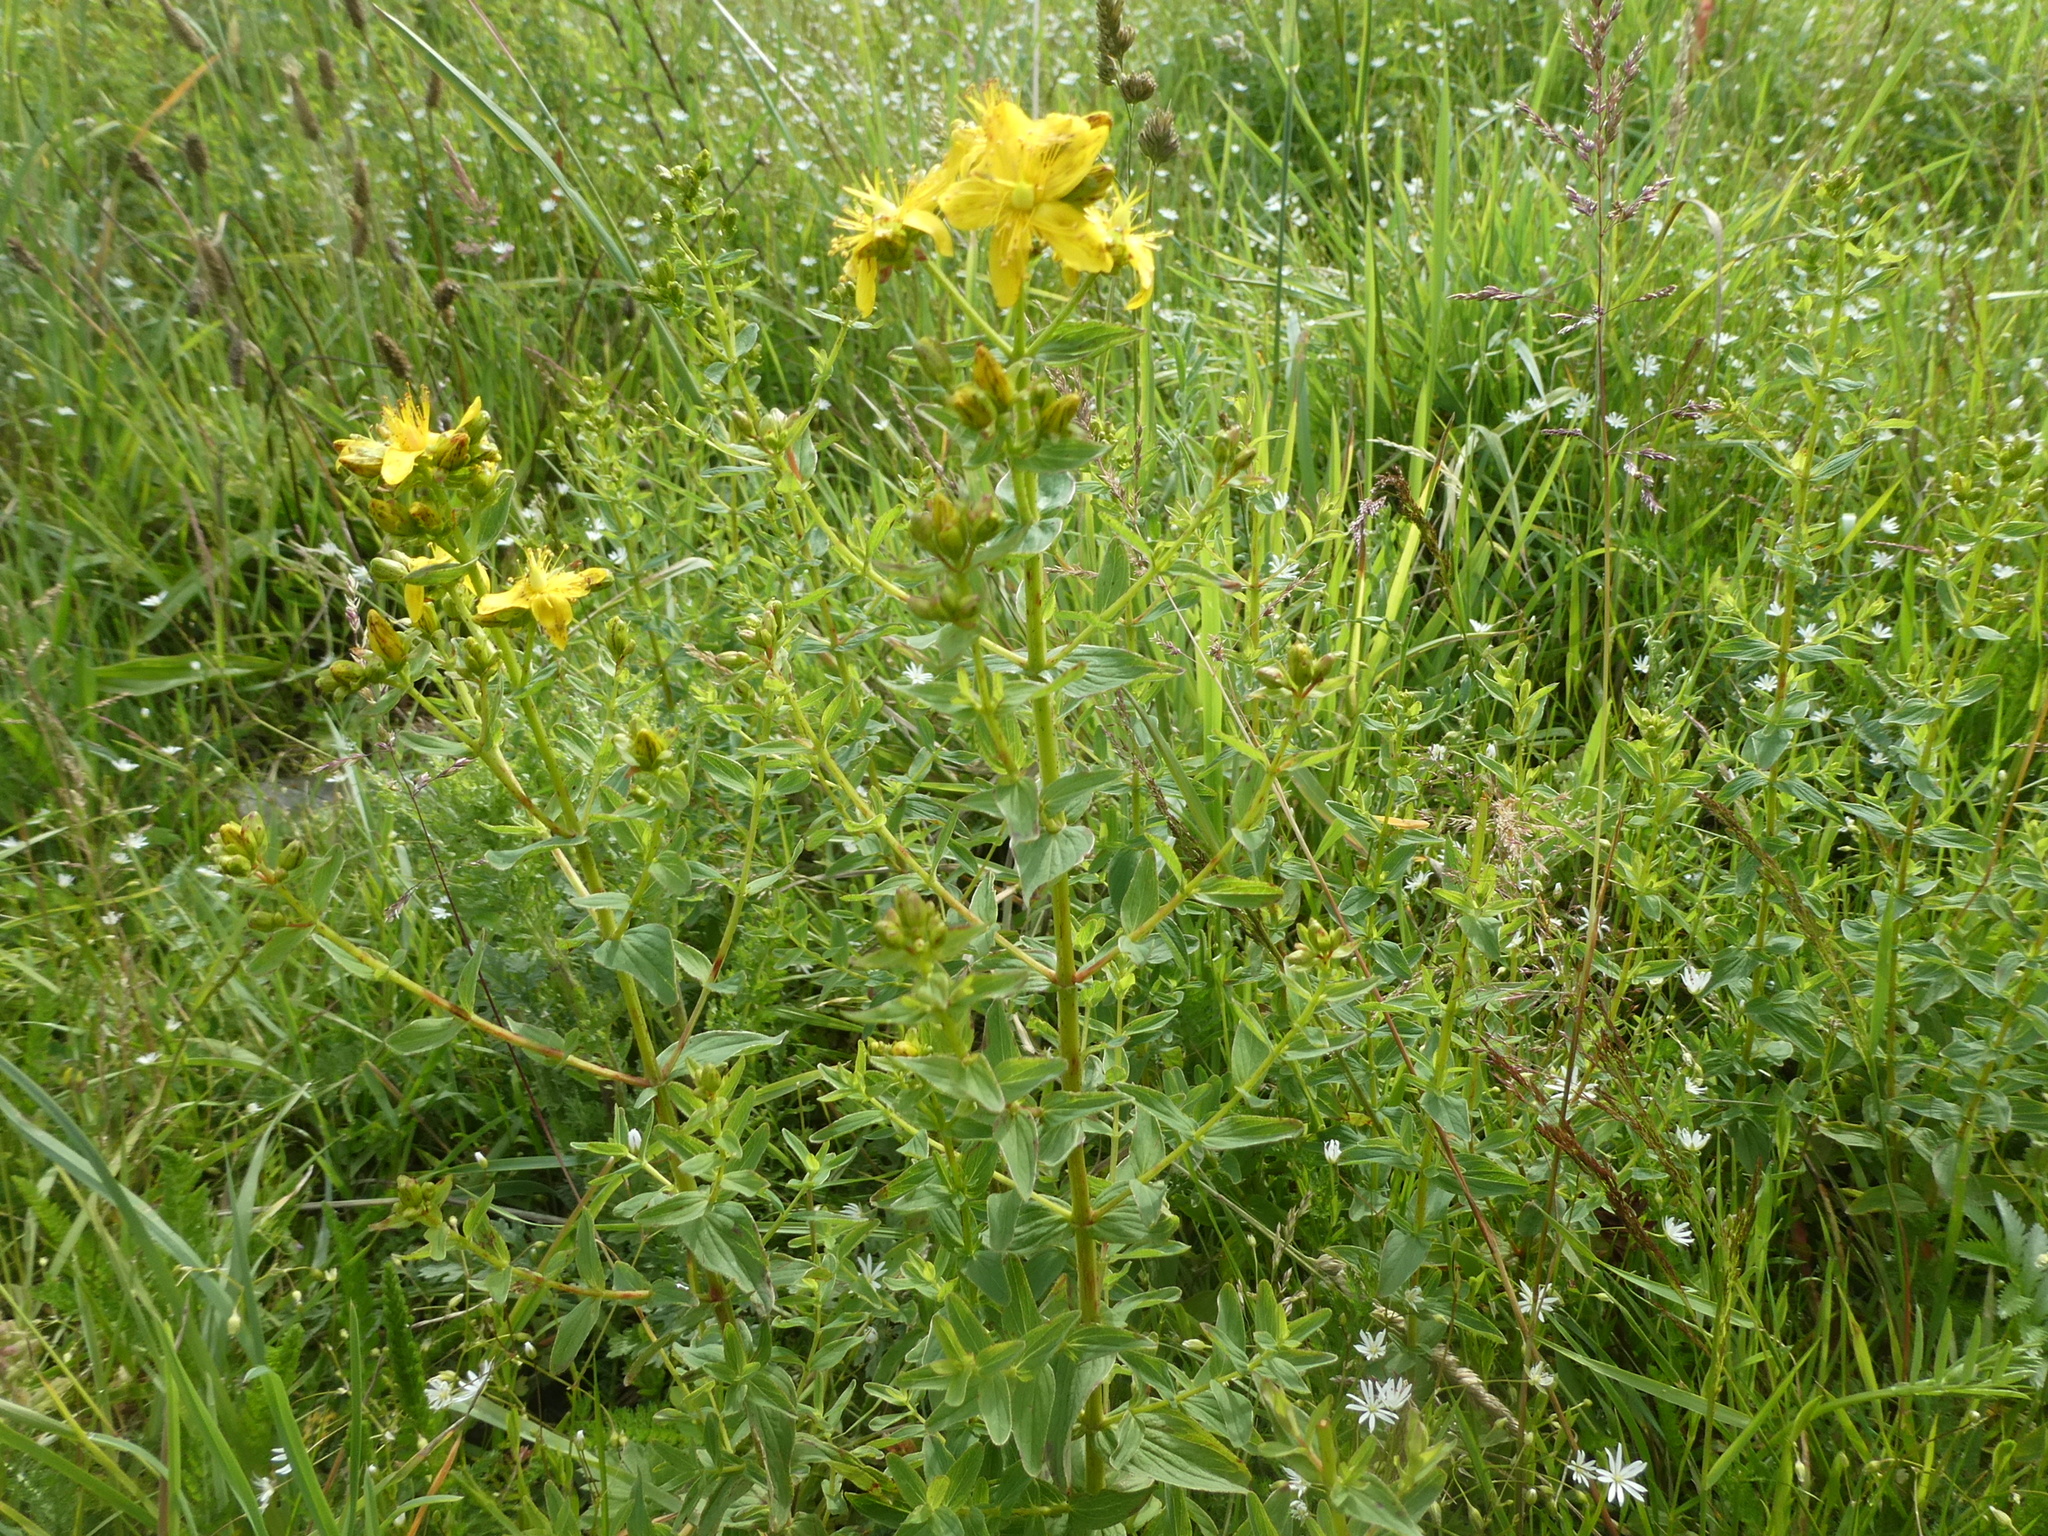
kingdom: Plantae
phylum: Tracheophyta
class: Magnoliopsida
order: Malpighiales
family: Hypericaceae
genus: Hypericum
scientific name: Hypericum dubium
